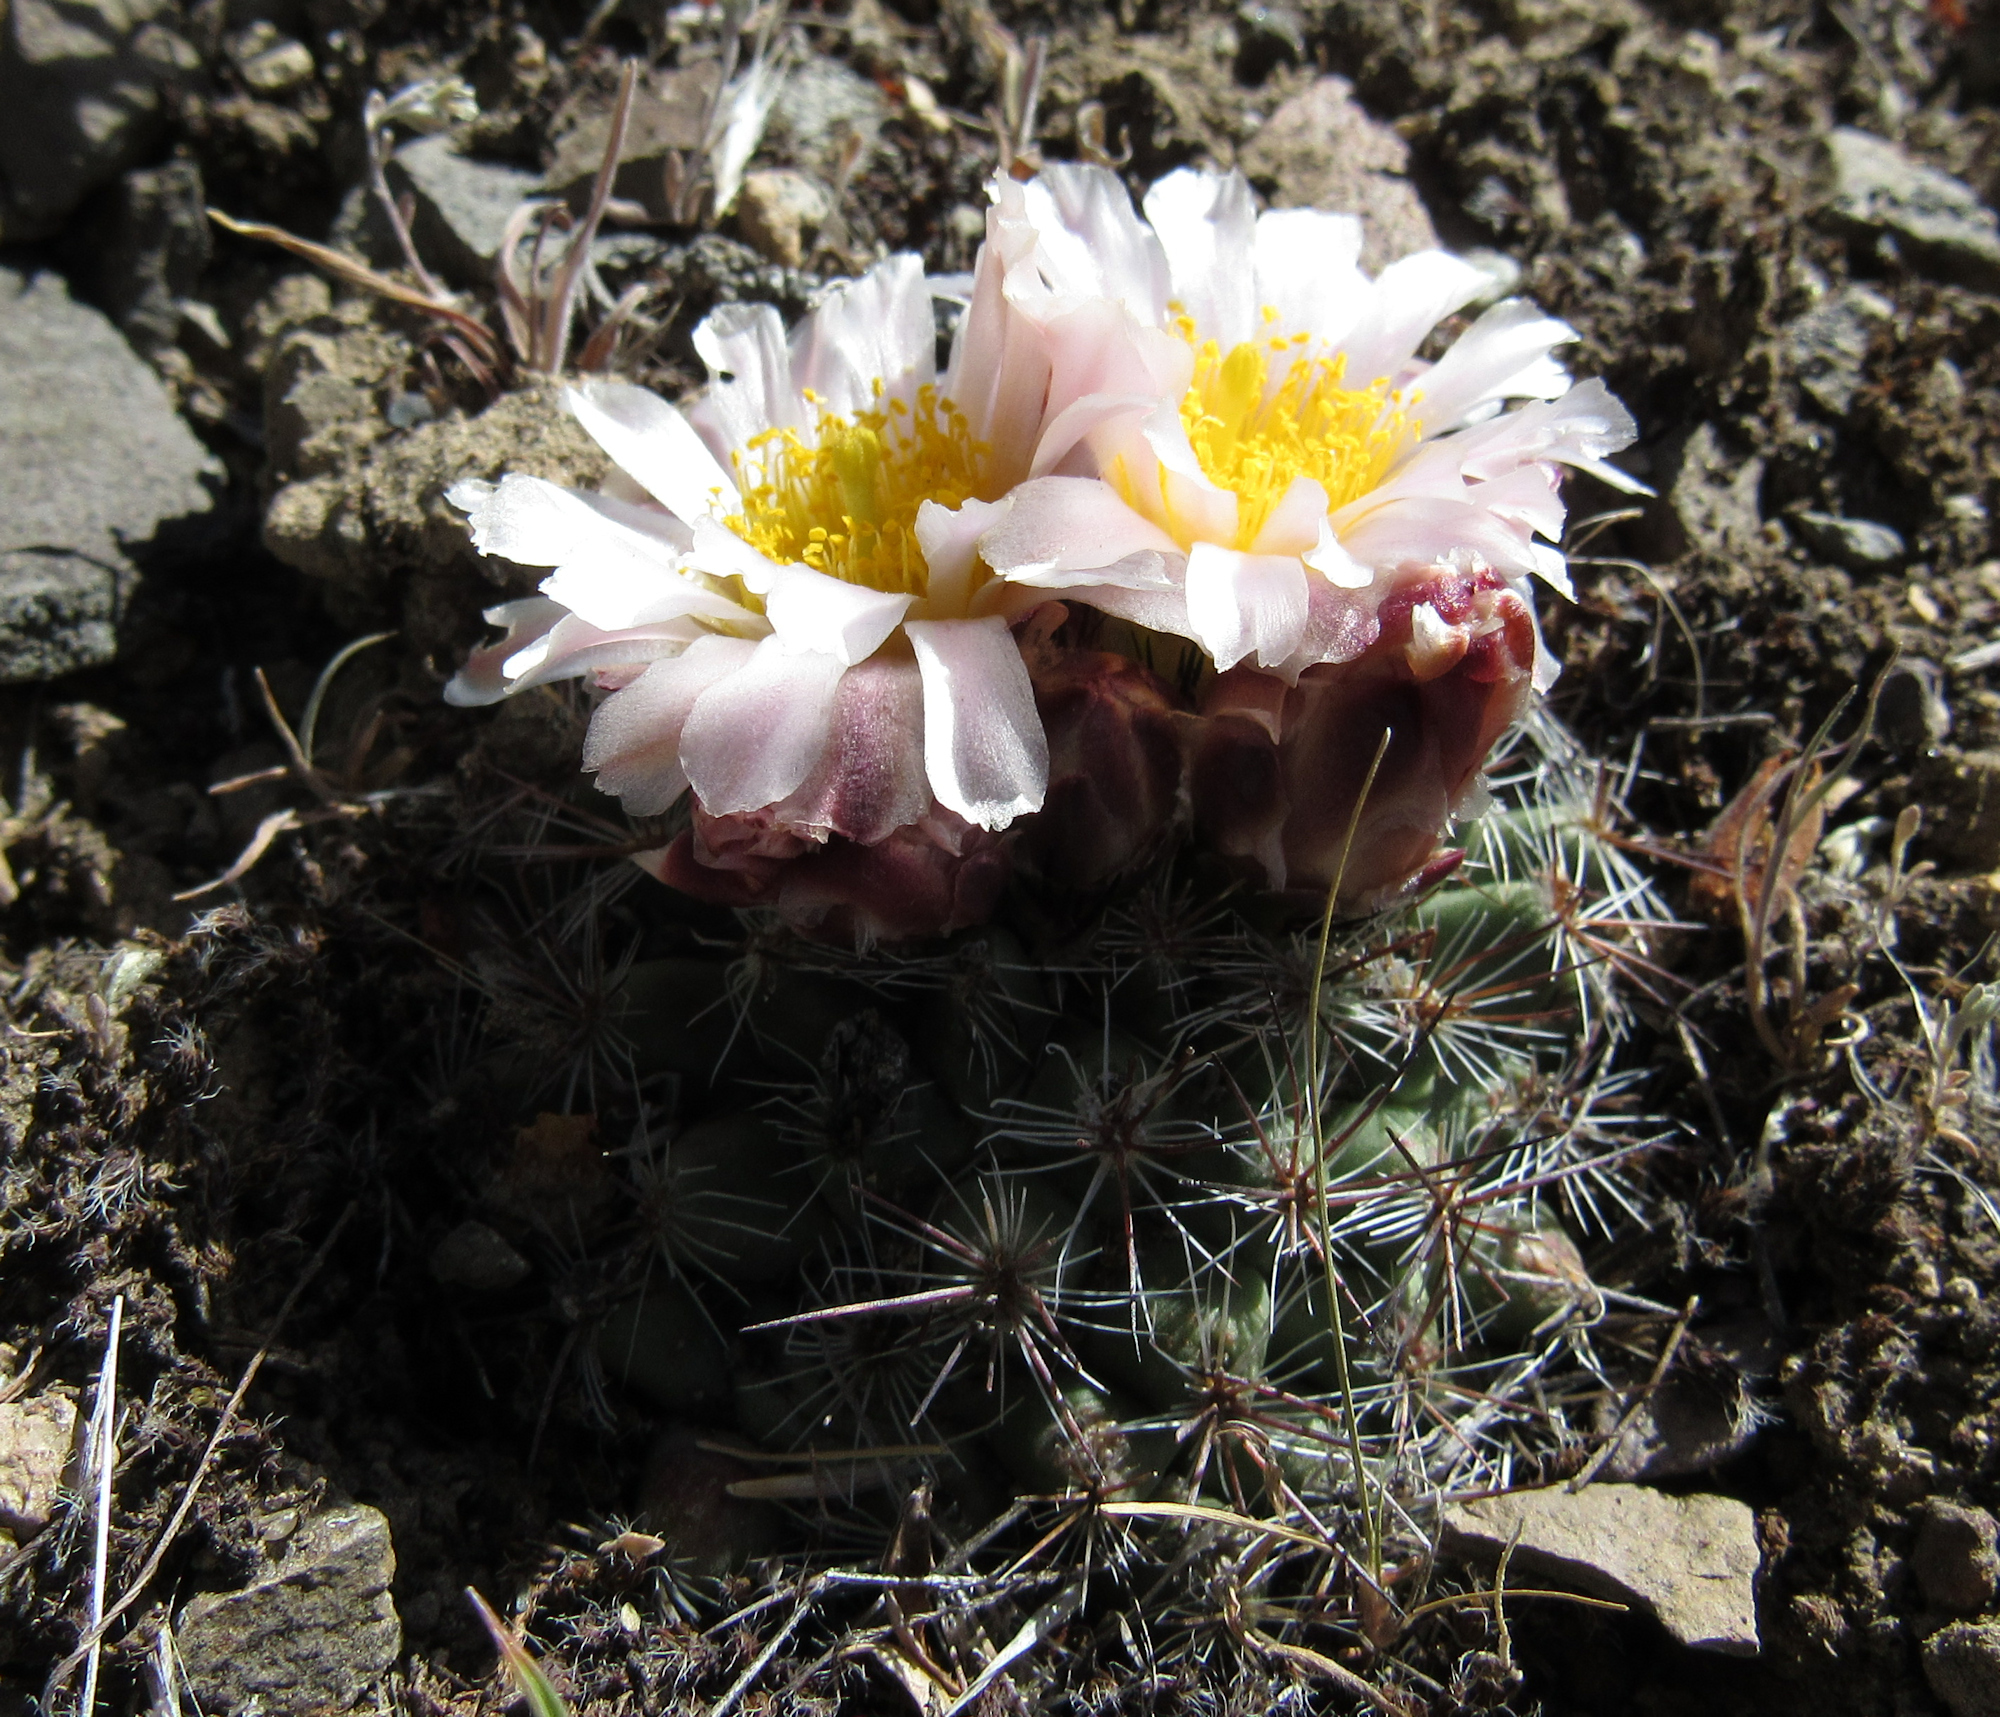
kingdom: Plantae
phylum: Tracheophyta
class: Magnoliopsida
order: Caryophyllales
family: Cactaceae
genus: Pediocactus
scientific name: Pediocactus simpsonii
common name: Simpson's hedgehog cactus
